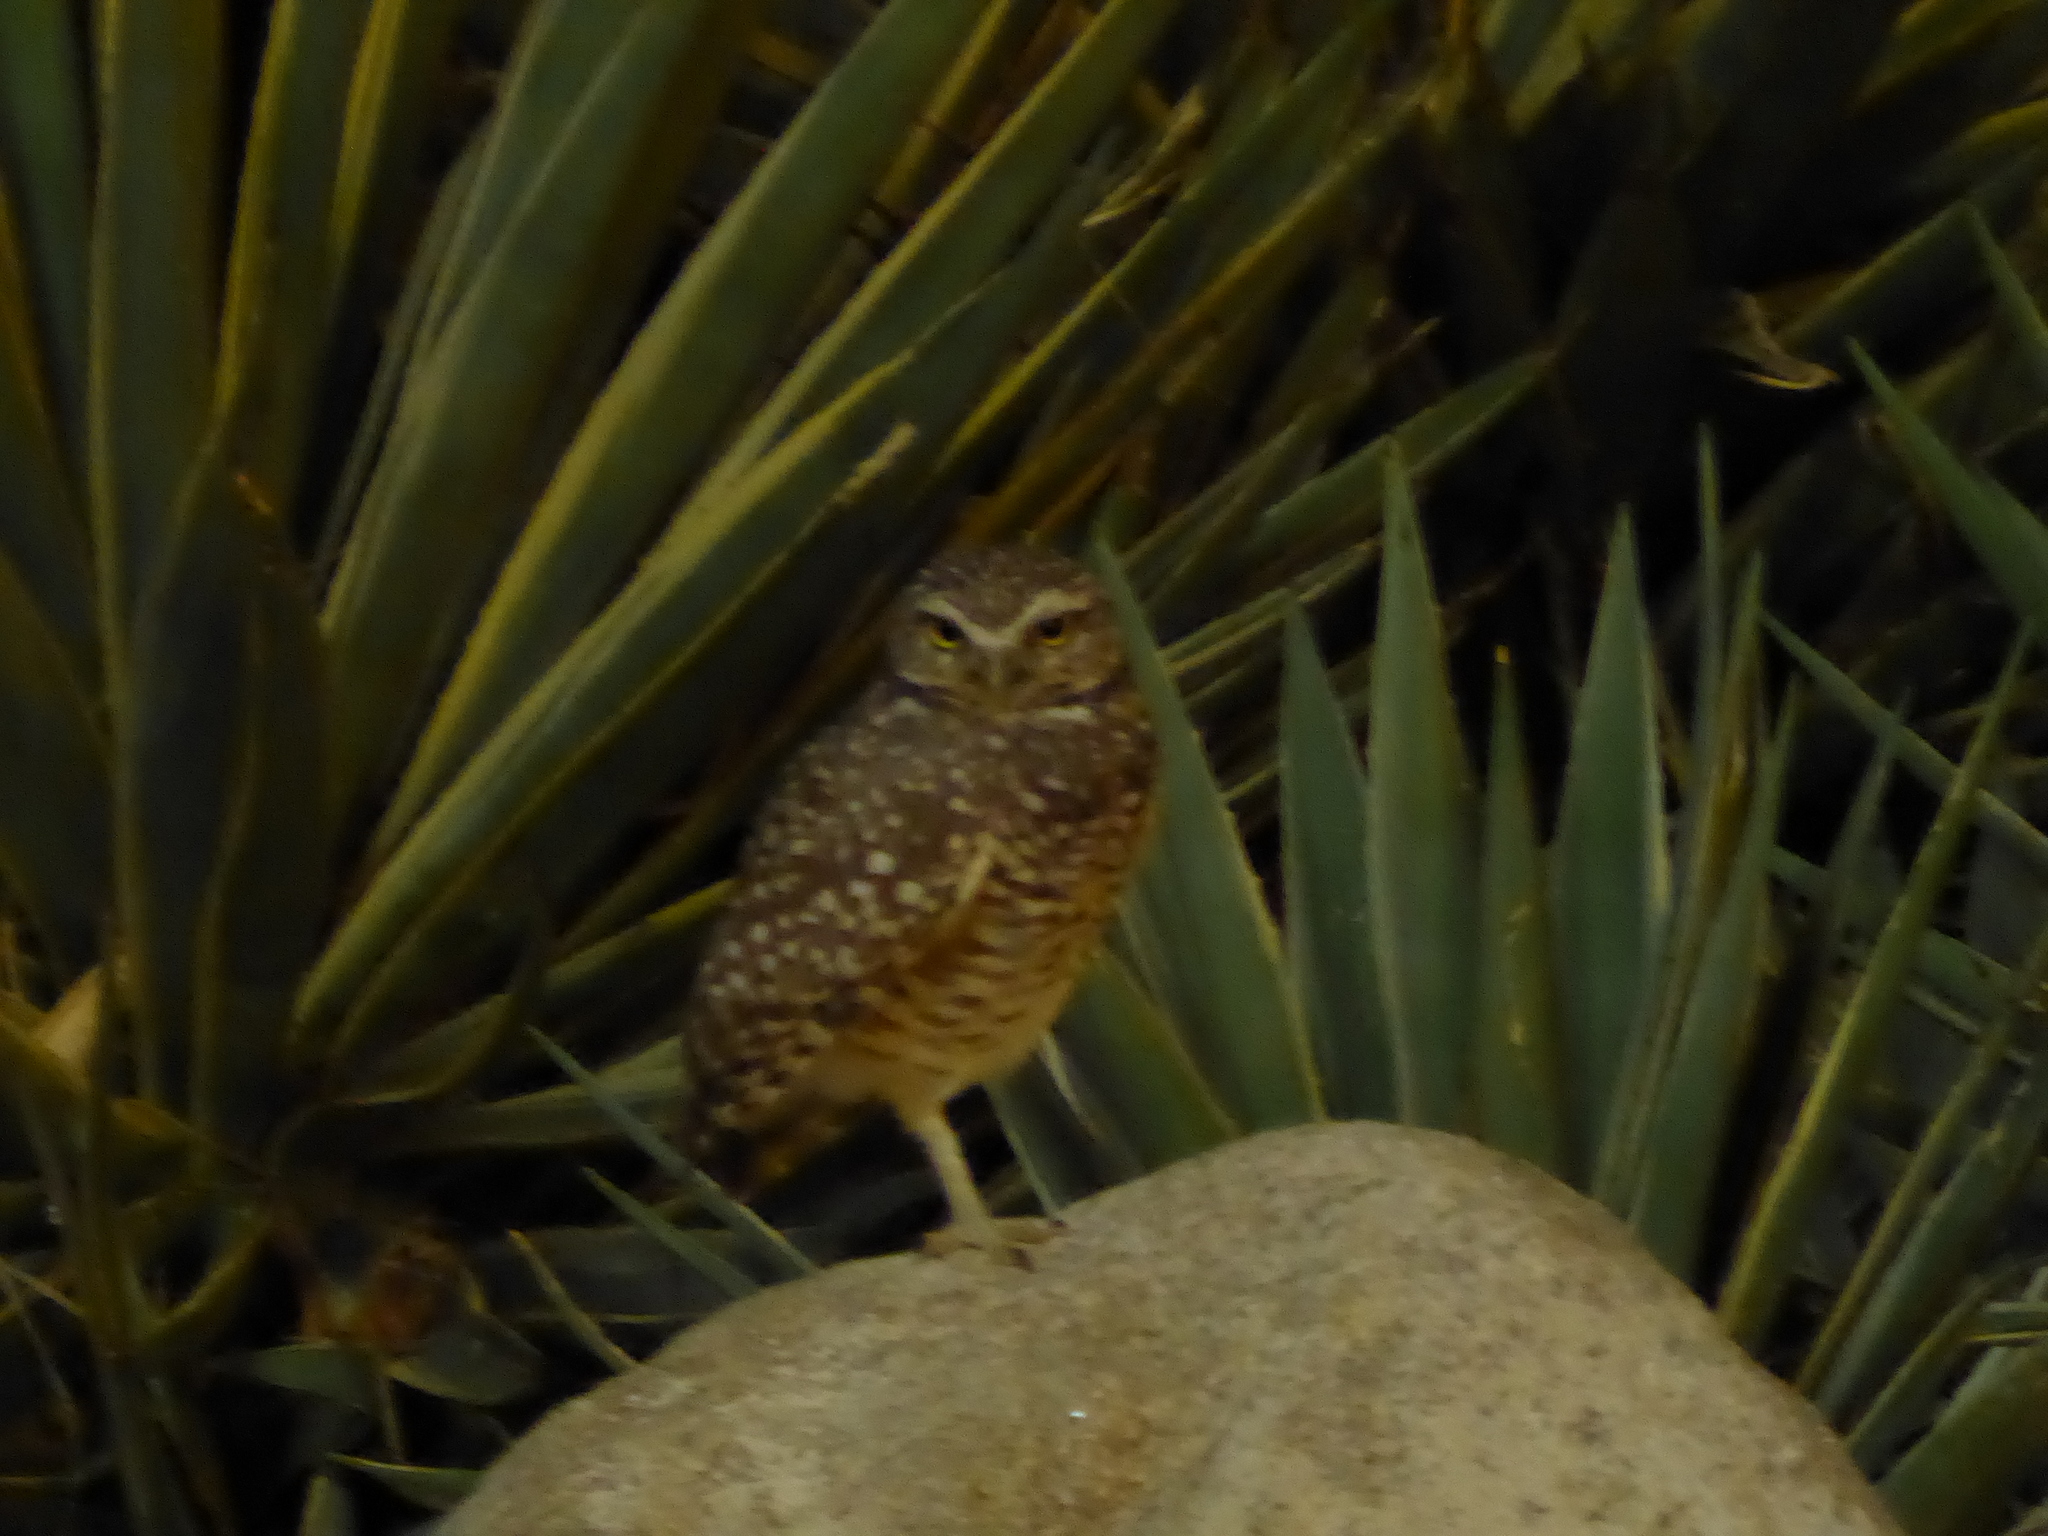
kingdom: Animalia
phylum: Chordata
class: Aves
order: Strigiformes
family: Strigidae
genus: Athene
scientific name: Athene cunicularia
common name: Burrowing owl
